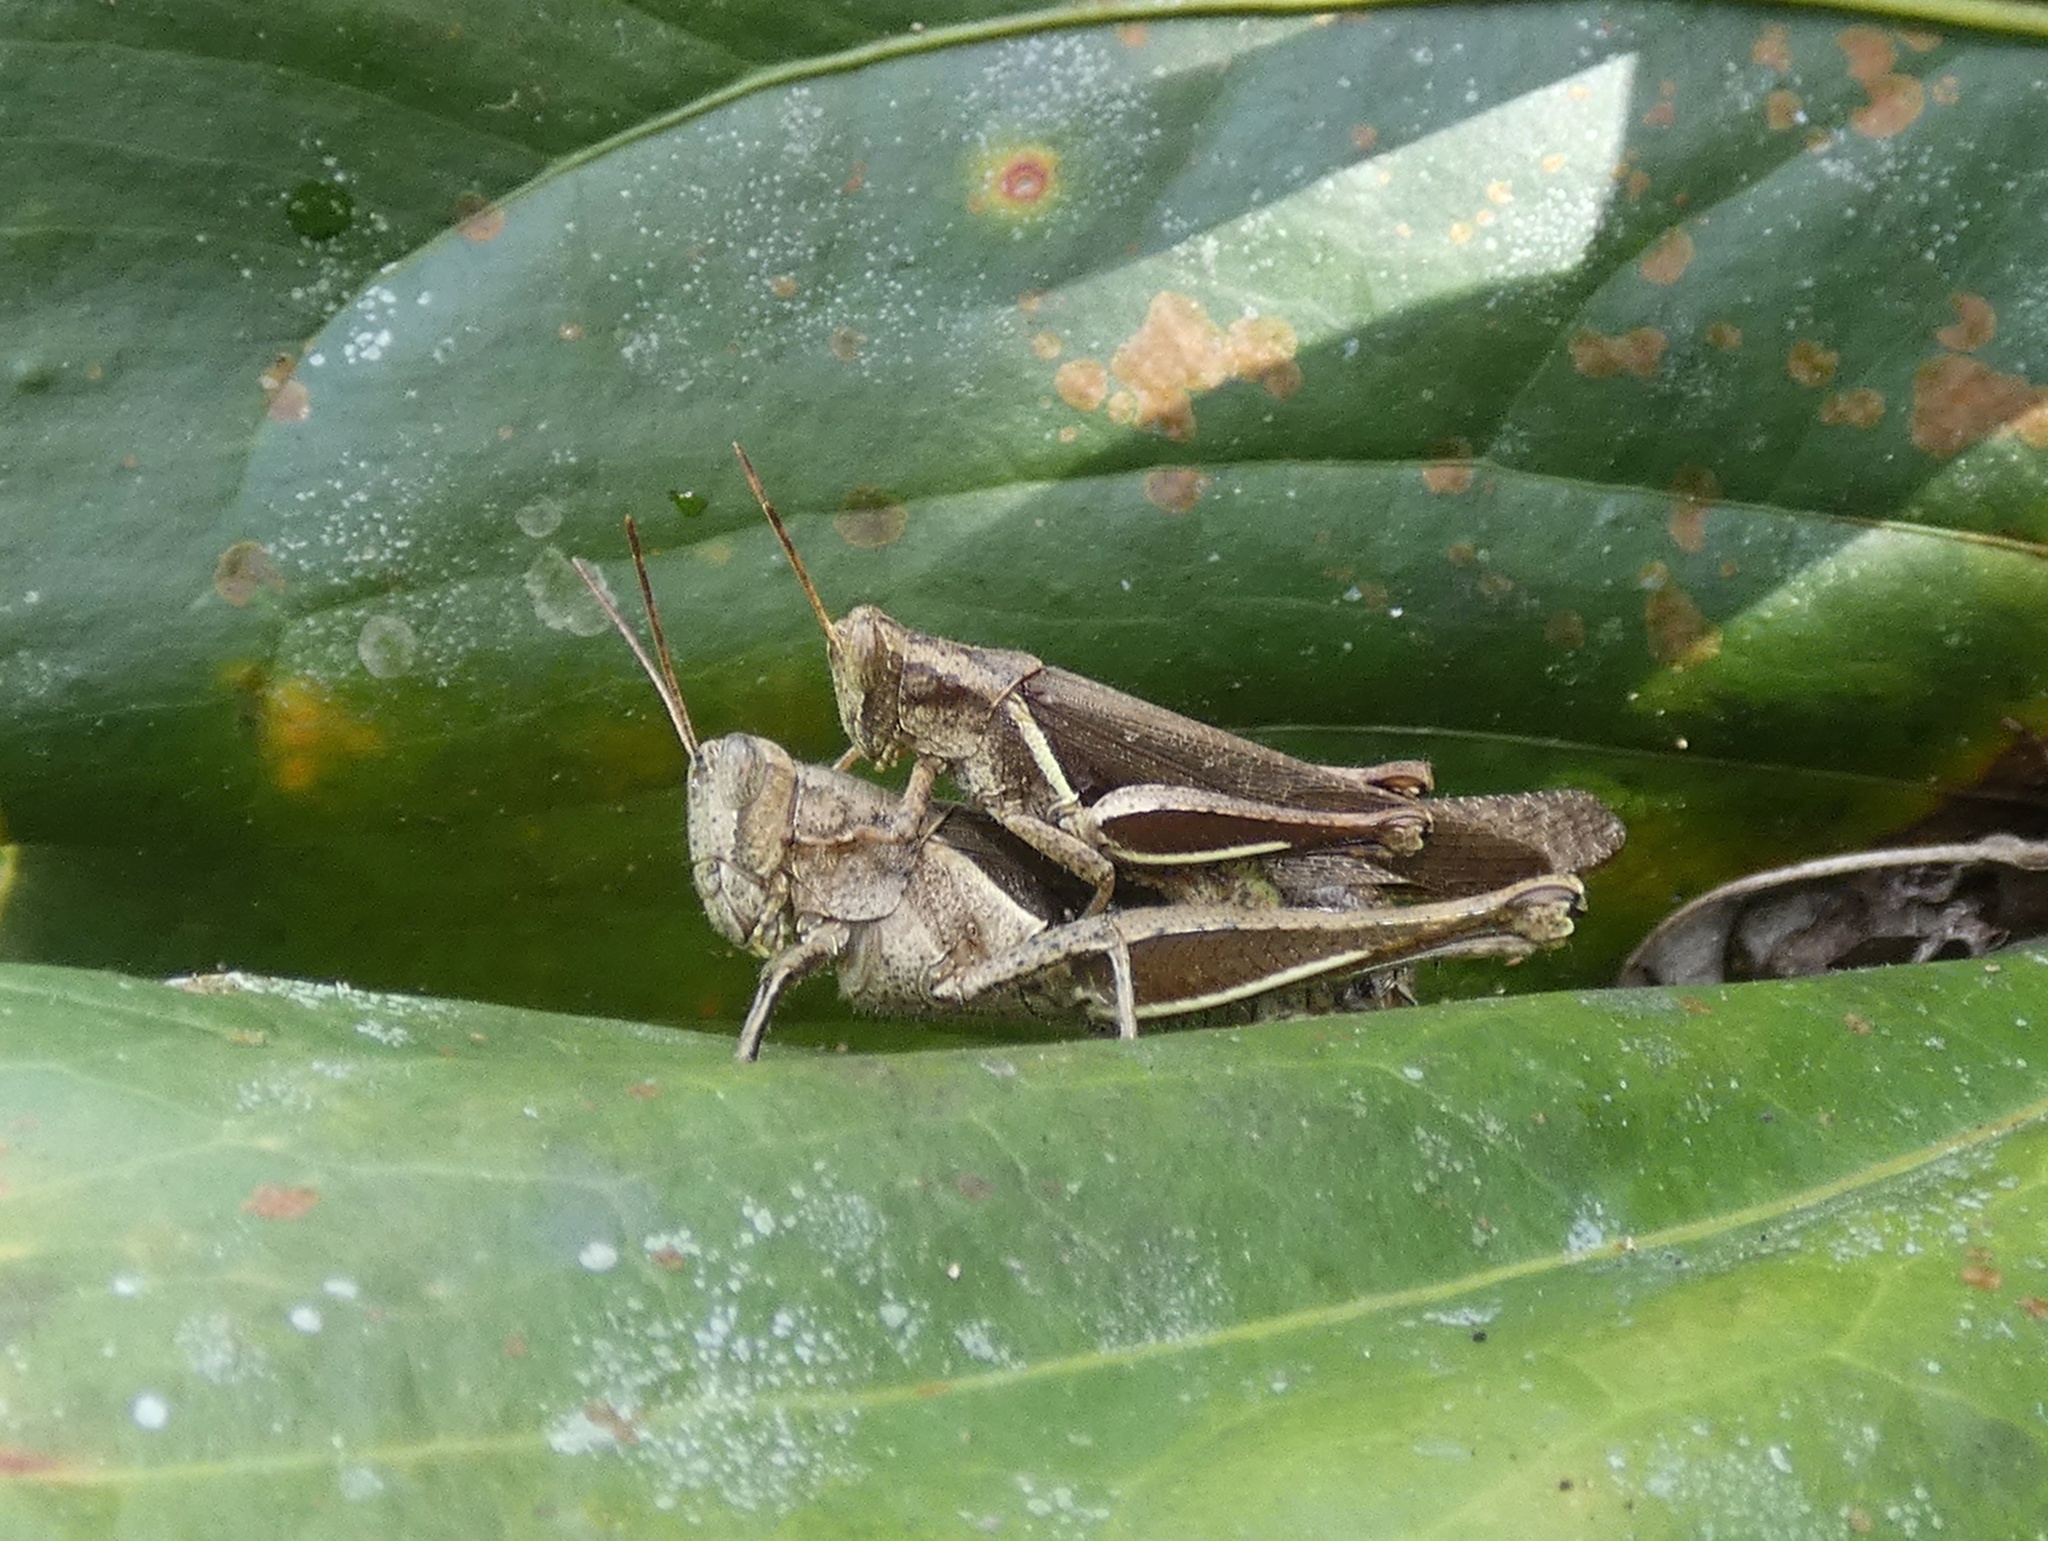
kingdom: Animalia
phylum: Arthropoda
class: Insecta
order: Orthoptera
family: Acrididae
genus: Abracris
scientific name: Abracris flavolineata
